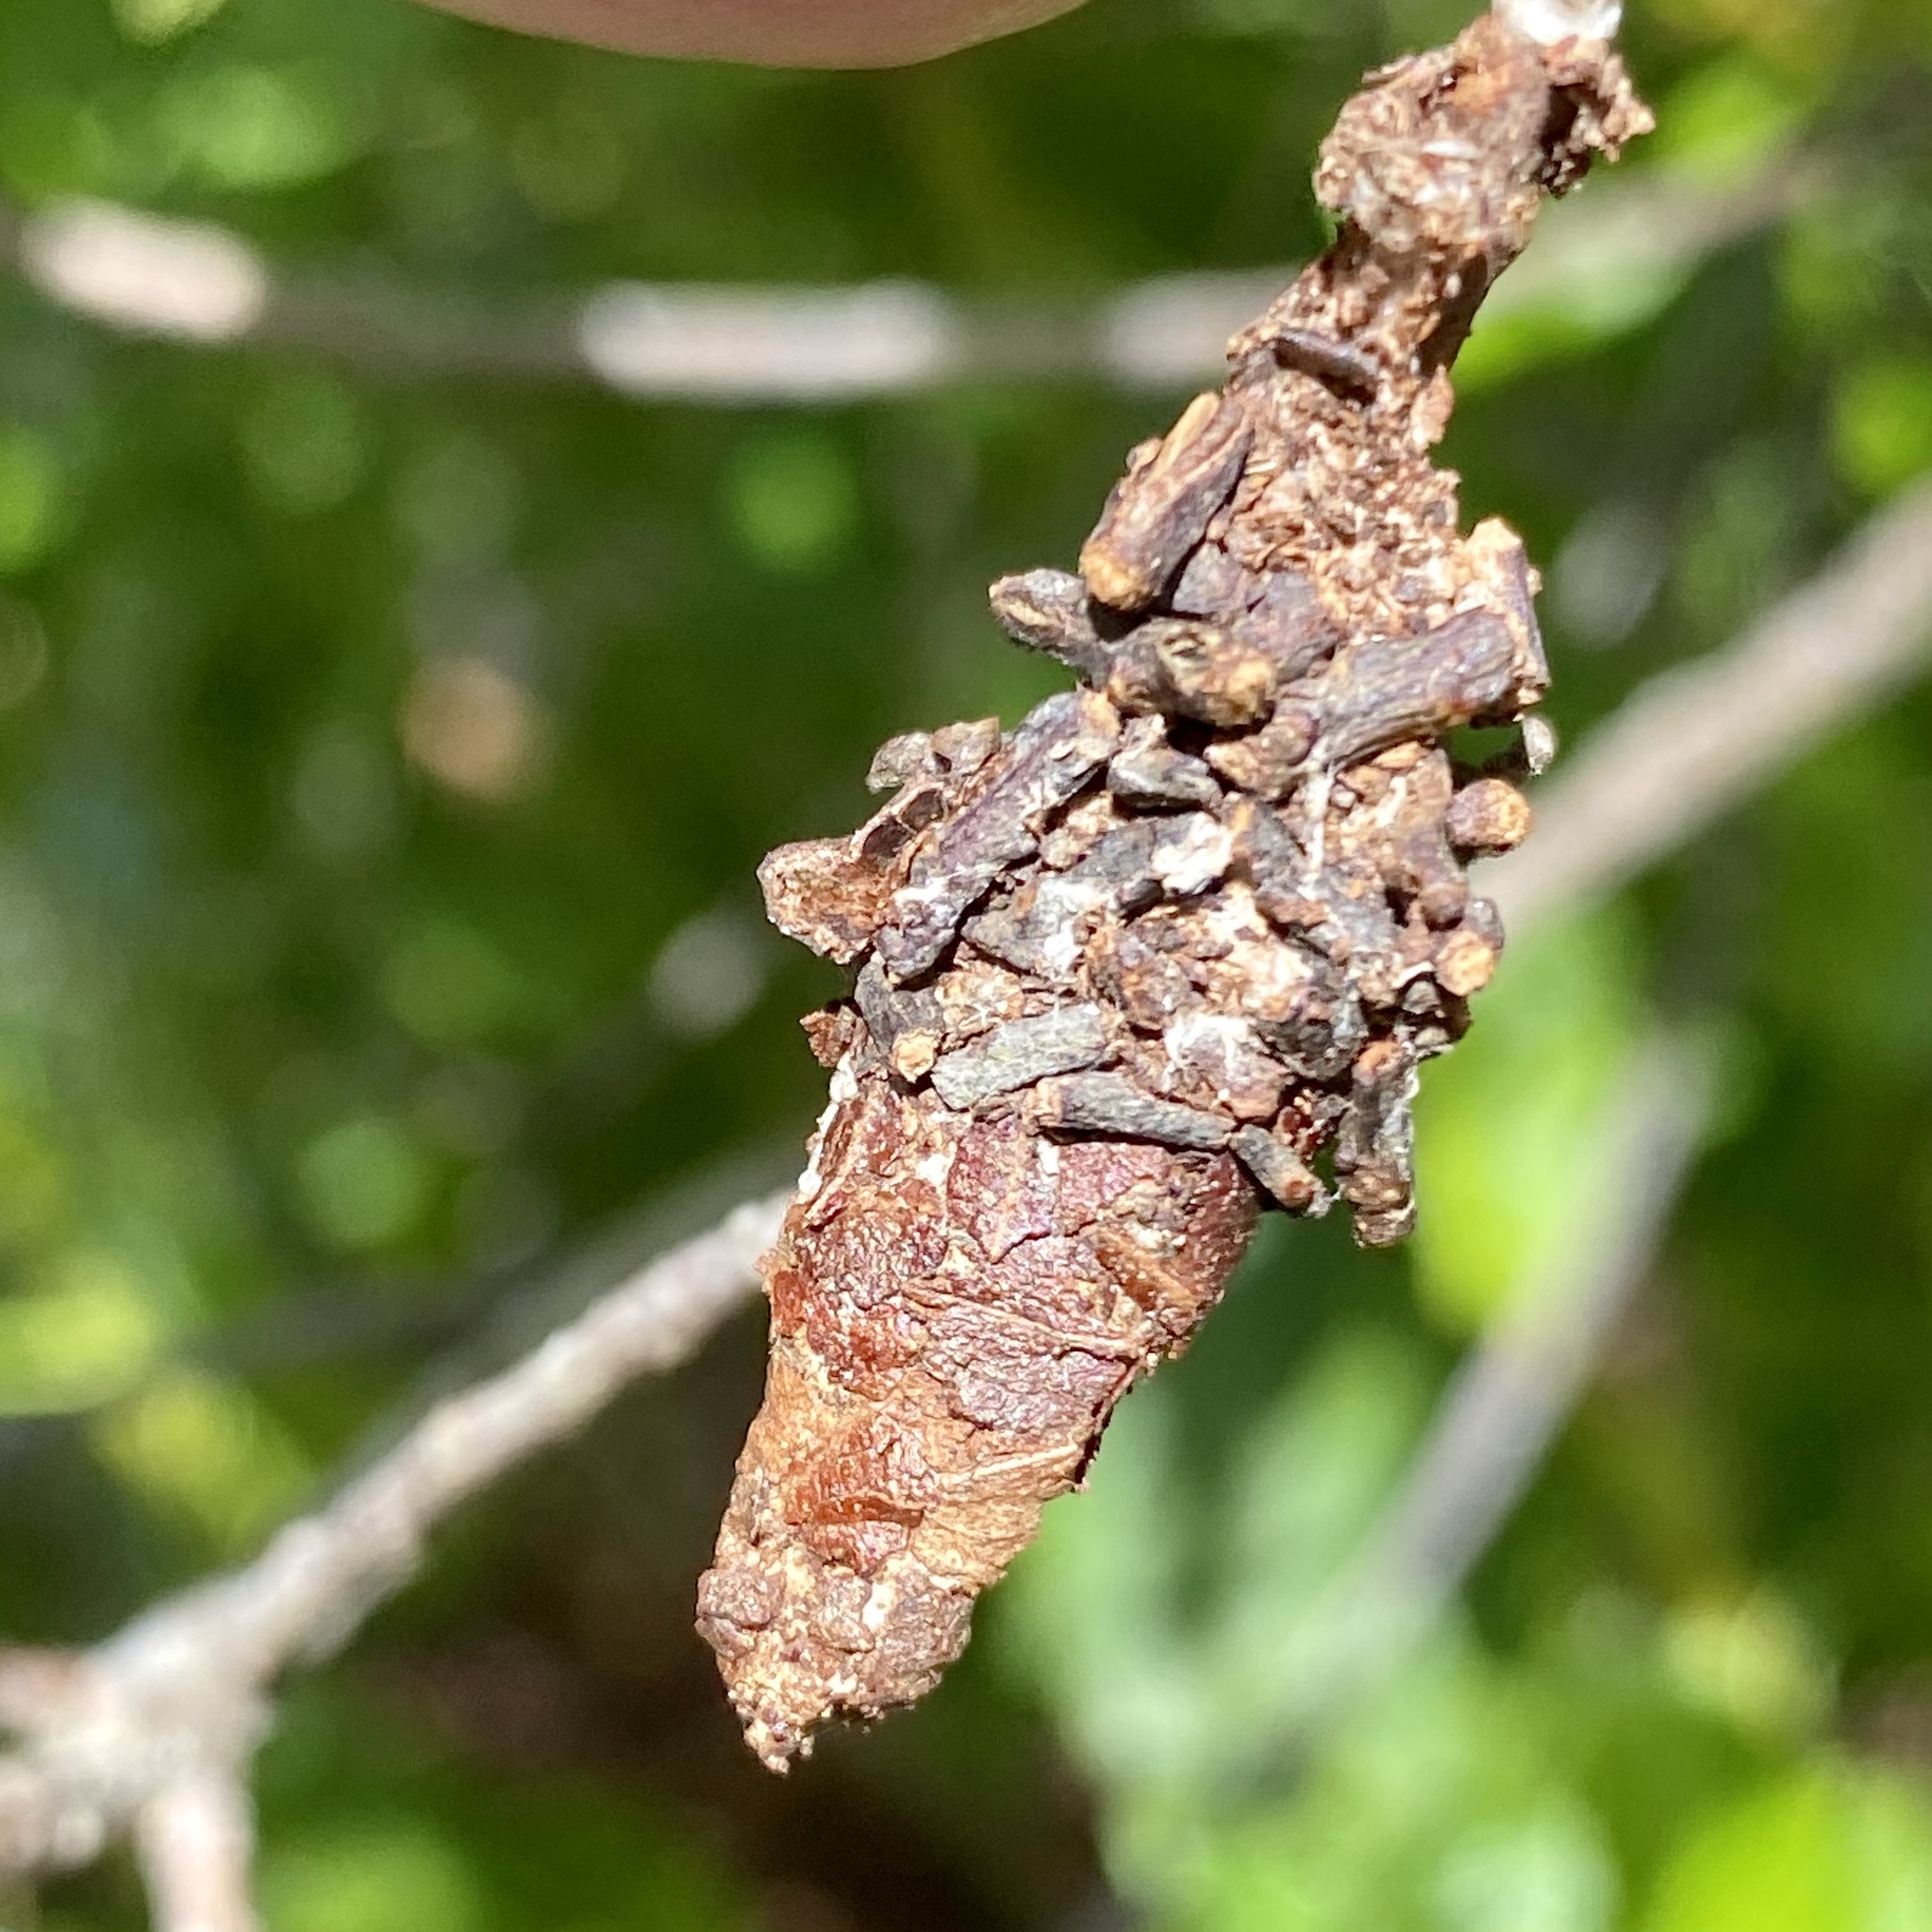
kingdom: Animalia
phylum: Arthropoda
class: Insecta
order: Lepidoptera
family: Psychidae
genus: Oiketicus
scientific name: Oiketicus
